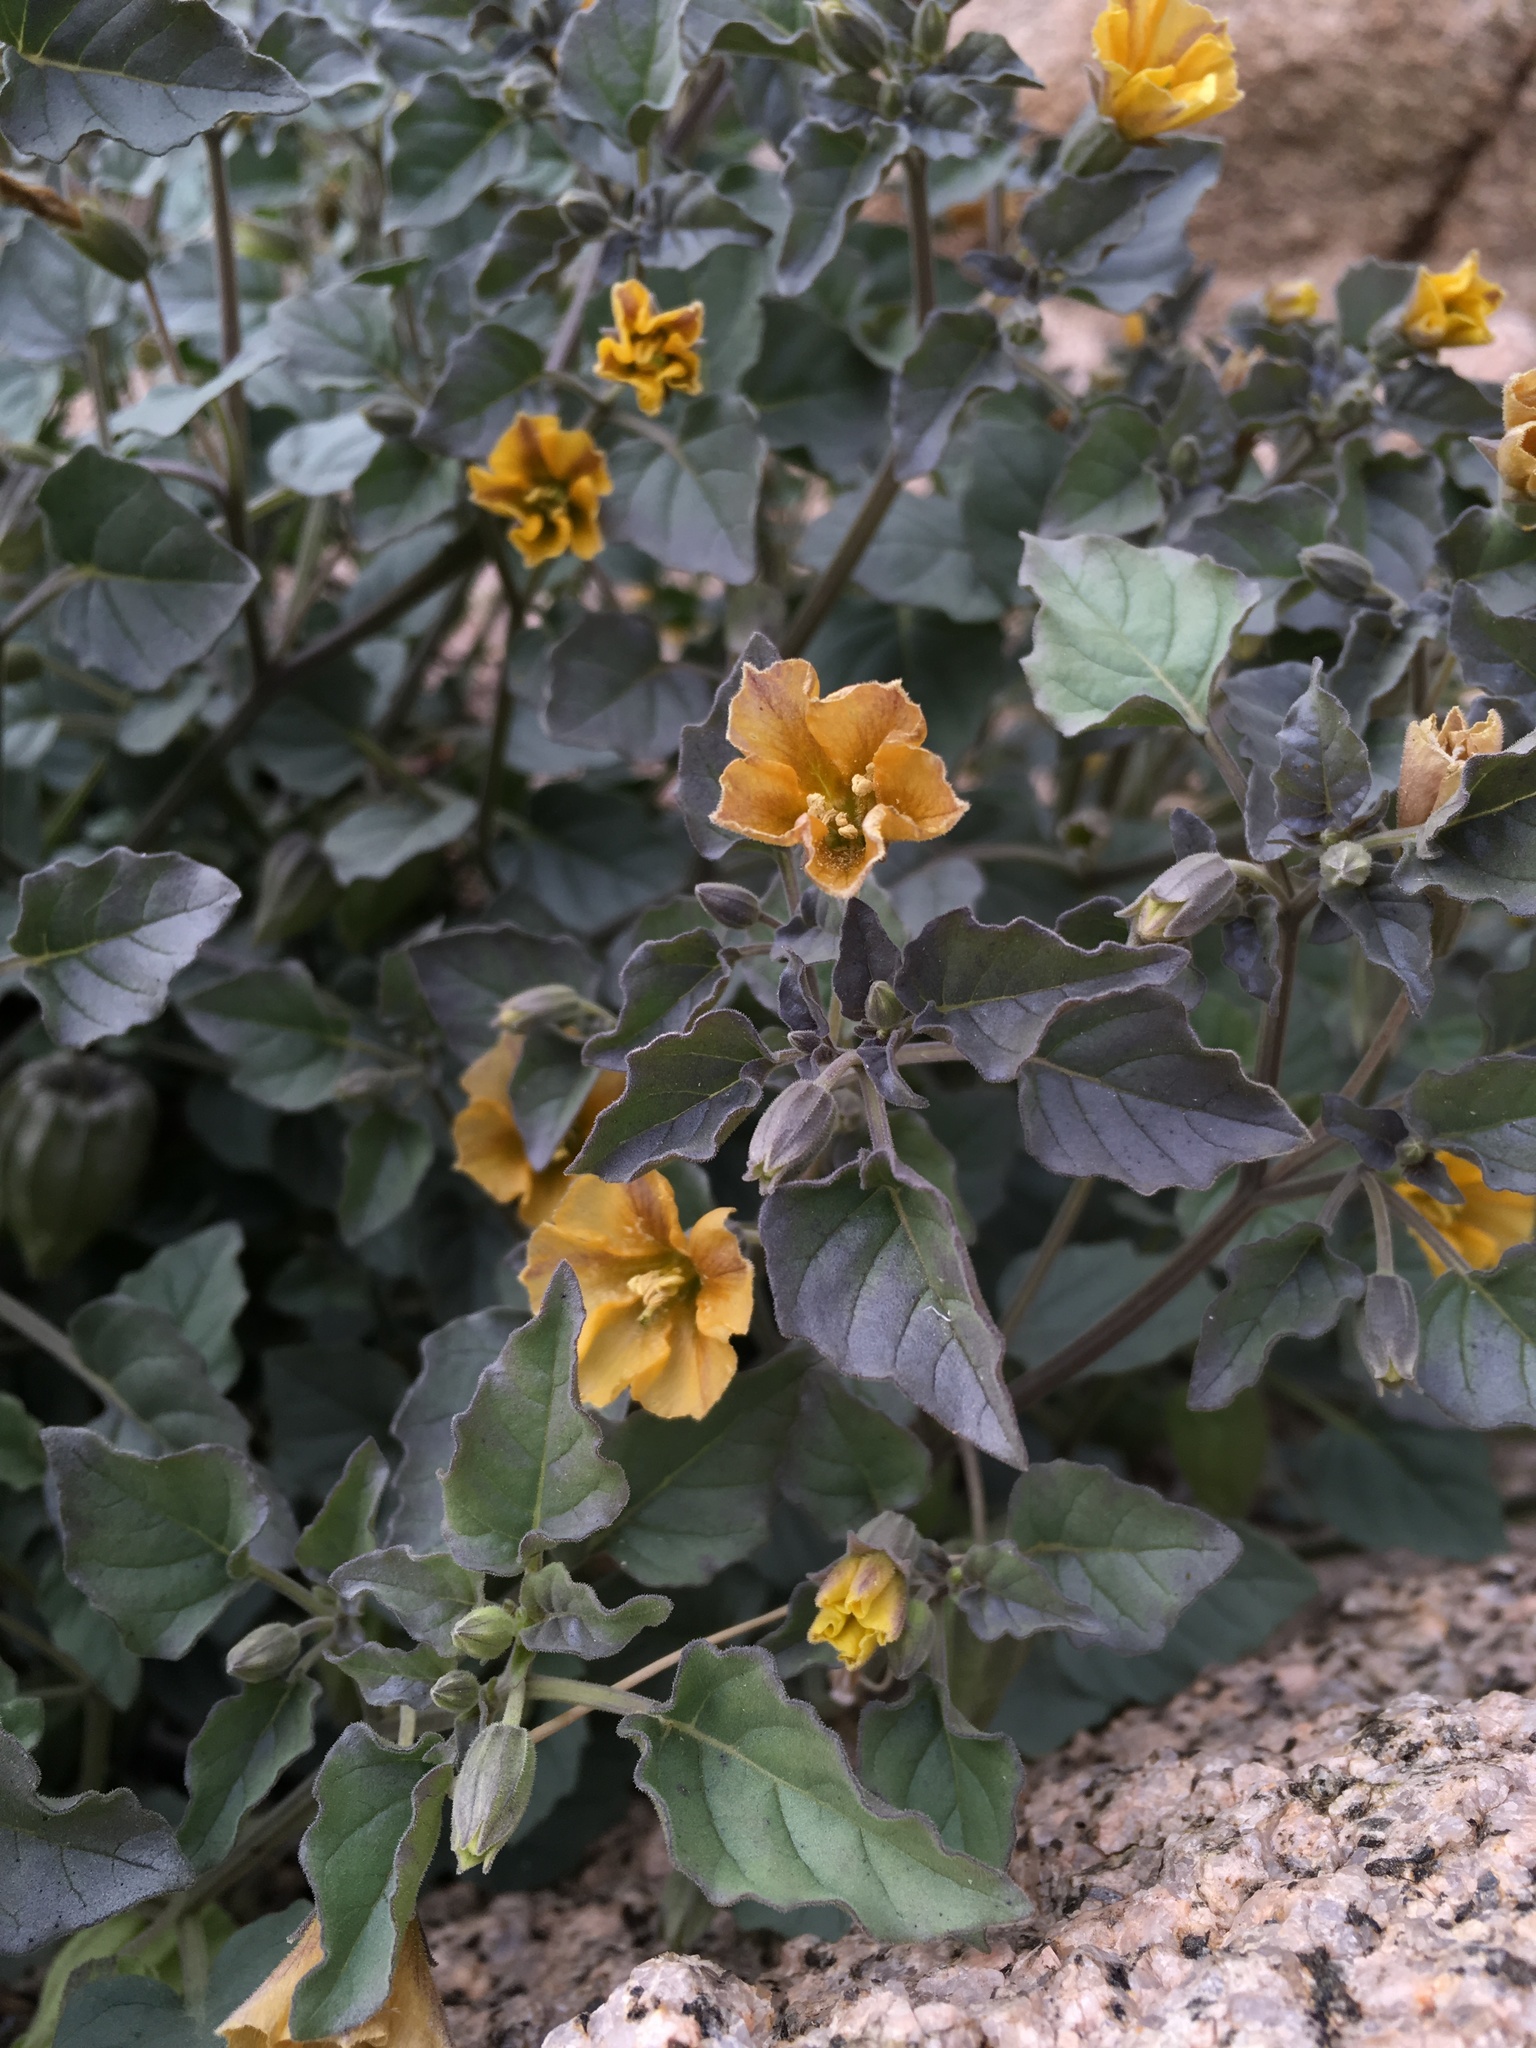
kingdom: Plantae
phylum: Tracheophyta
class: Magnoliopsida
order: Solanales
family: Solanaceae
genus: Physalis
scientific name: Physalis crassifolia
